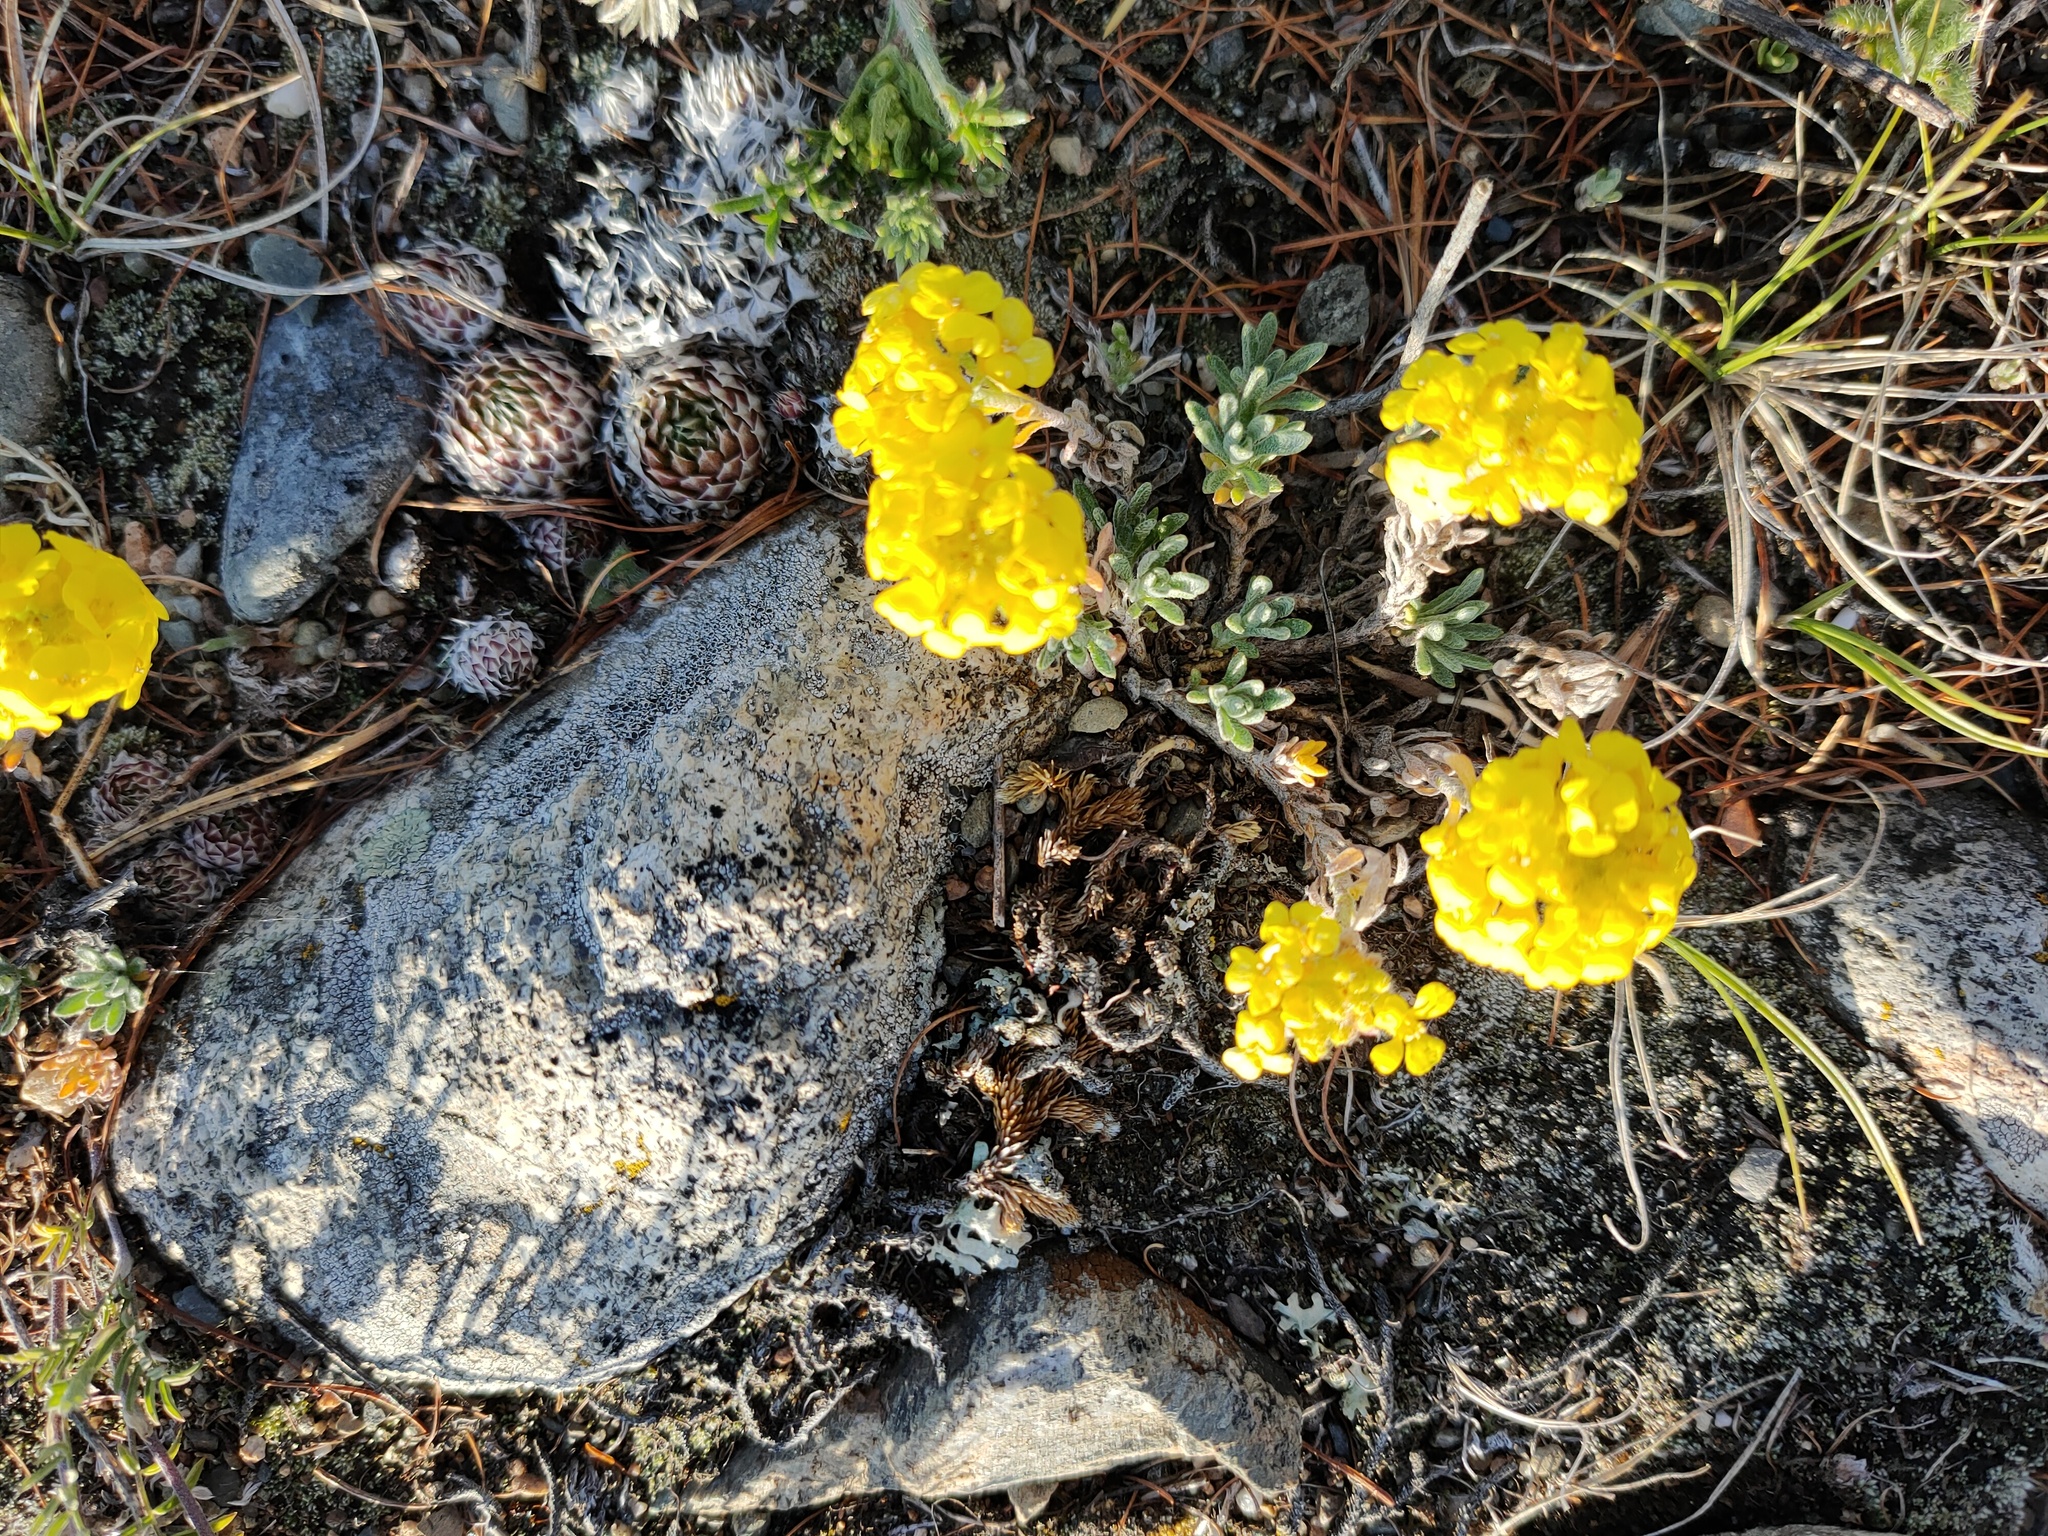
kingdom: Plantae
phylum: Tracheophyta
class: Magnoliopsida
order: Brassicales
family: Brassicaceae
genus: Alyssum
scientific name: Alyssum lenense
